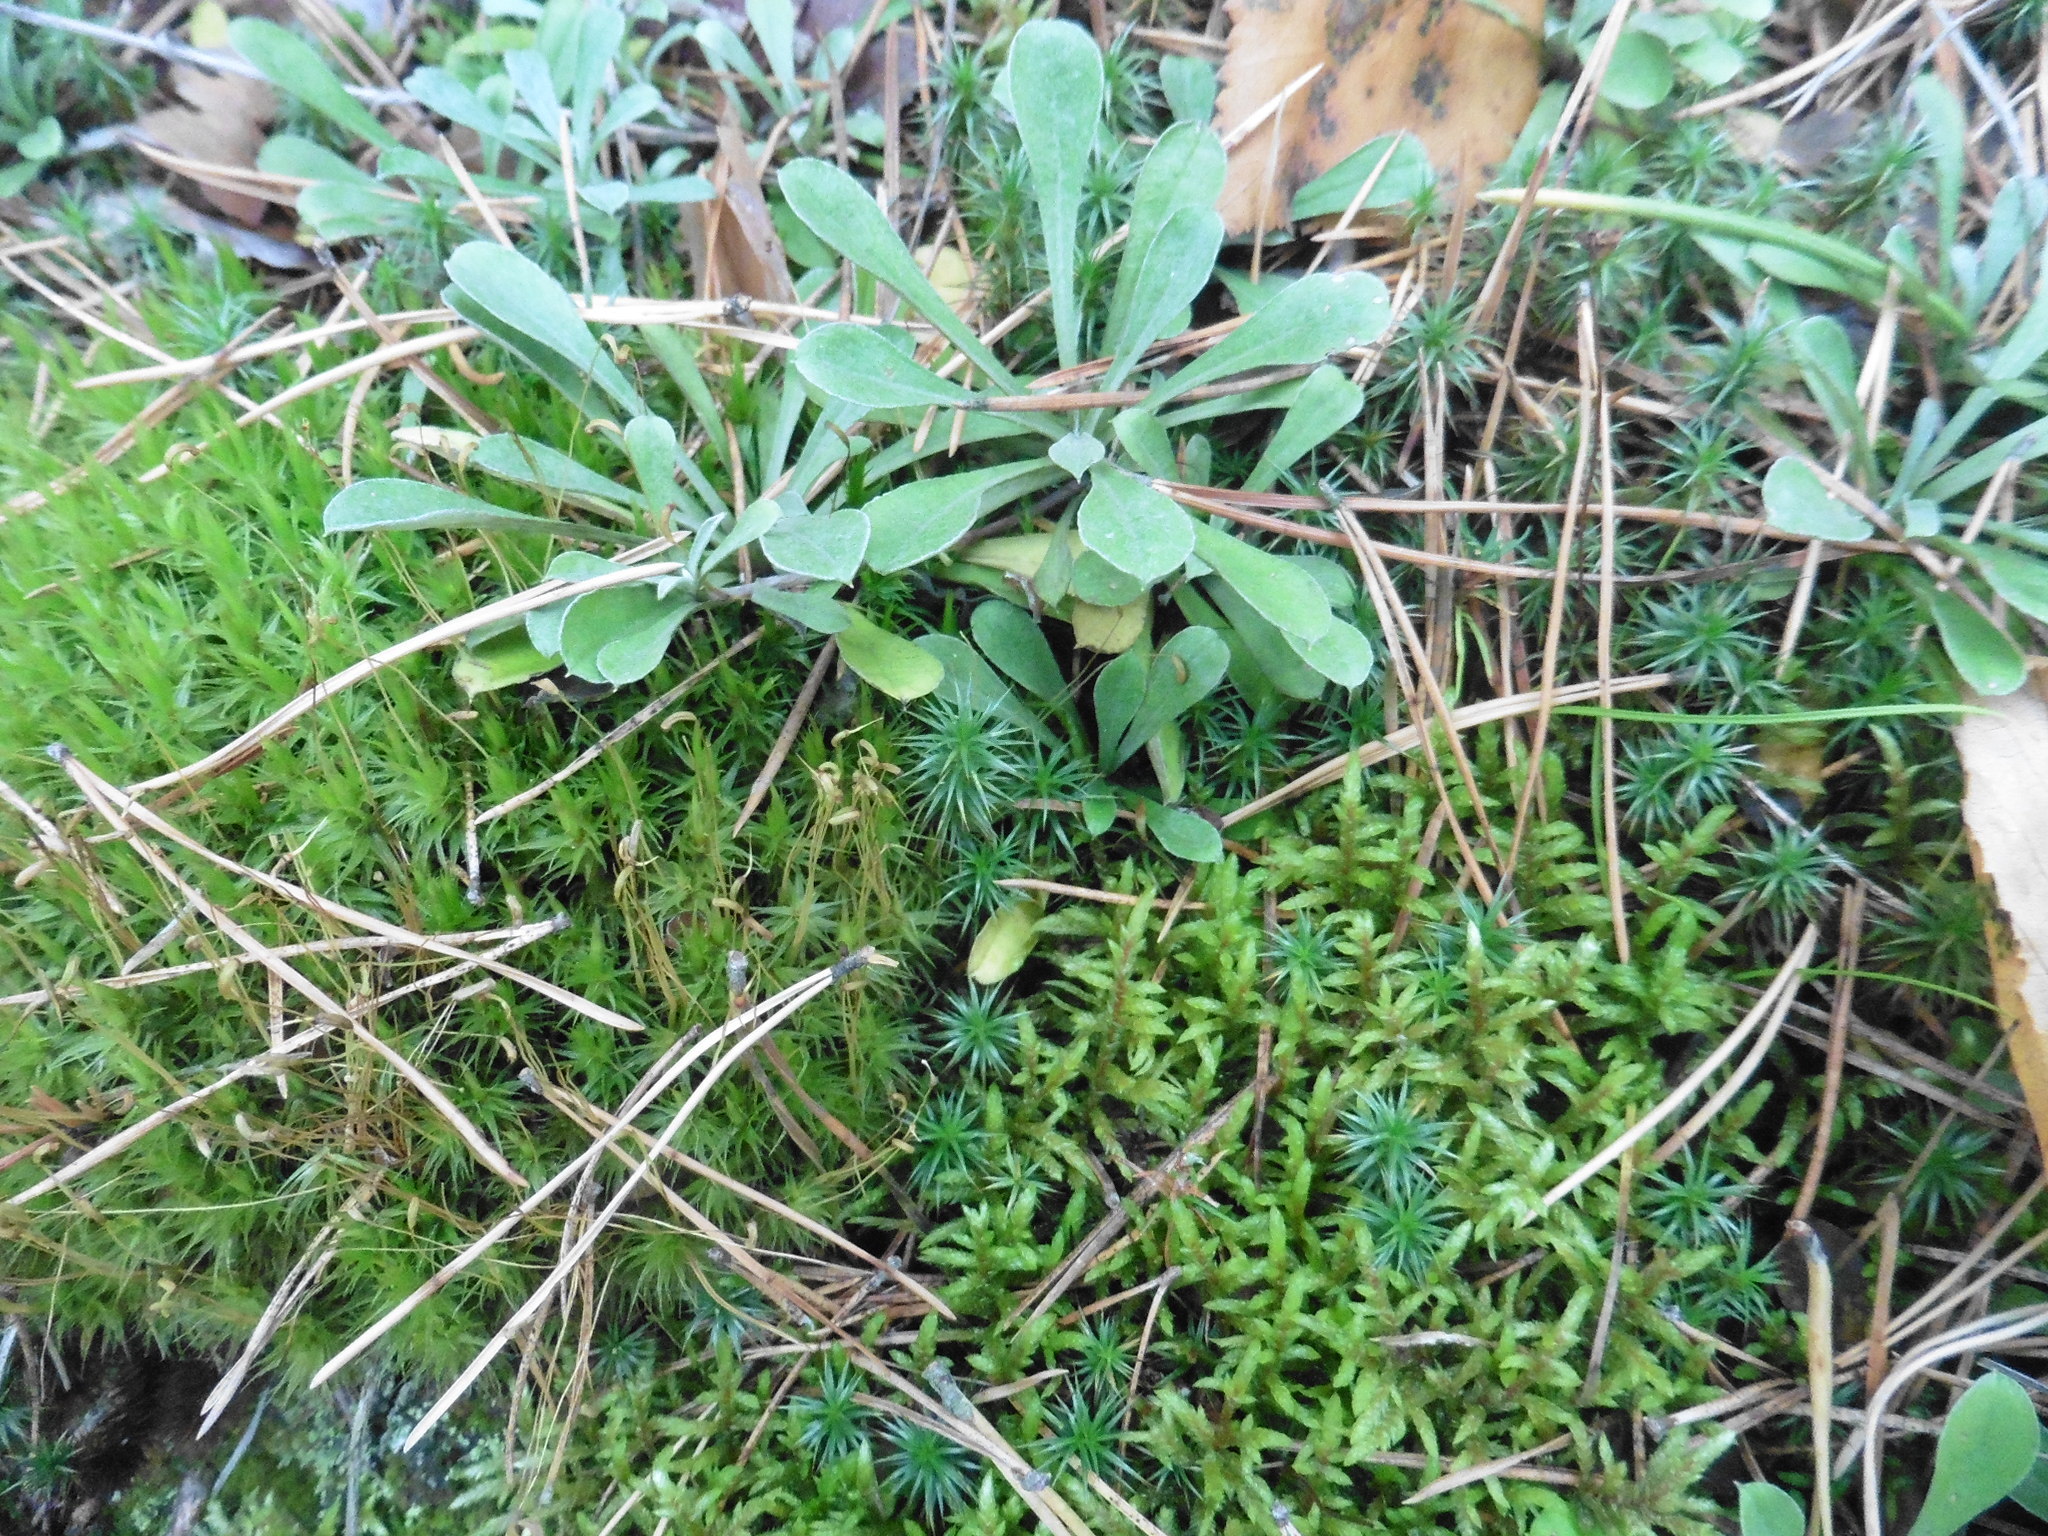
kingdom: Plantae
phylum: Tracheophyta
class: Magnoliopsida
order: Asterales
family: Asteraceae
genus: Antennaria
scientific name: Antennaria dioica
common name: Mountain everlasting
